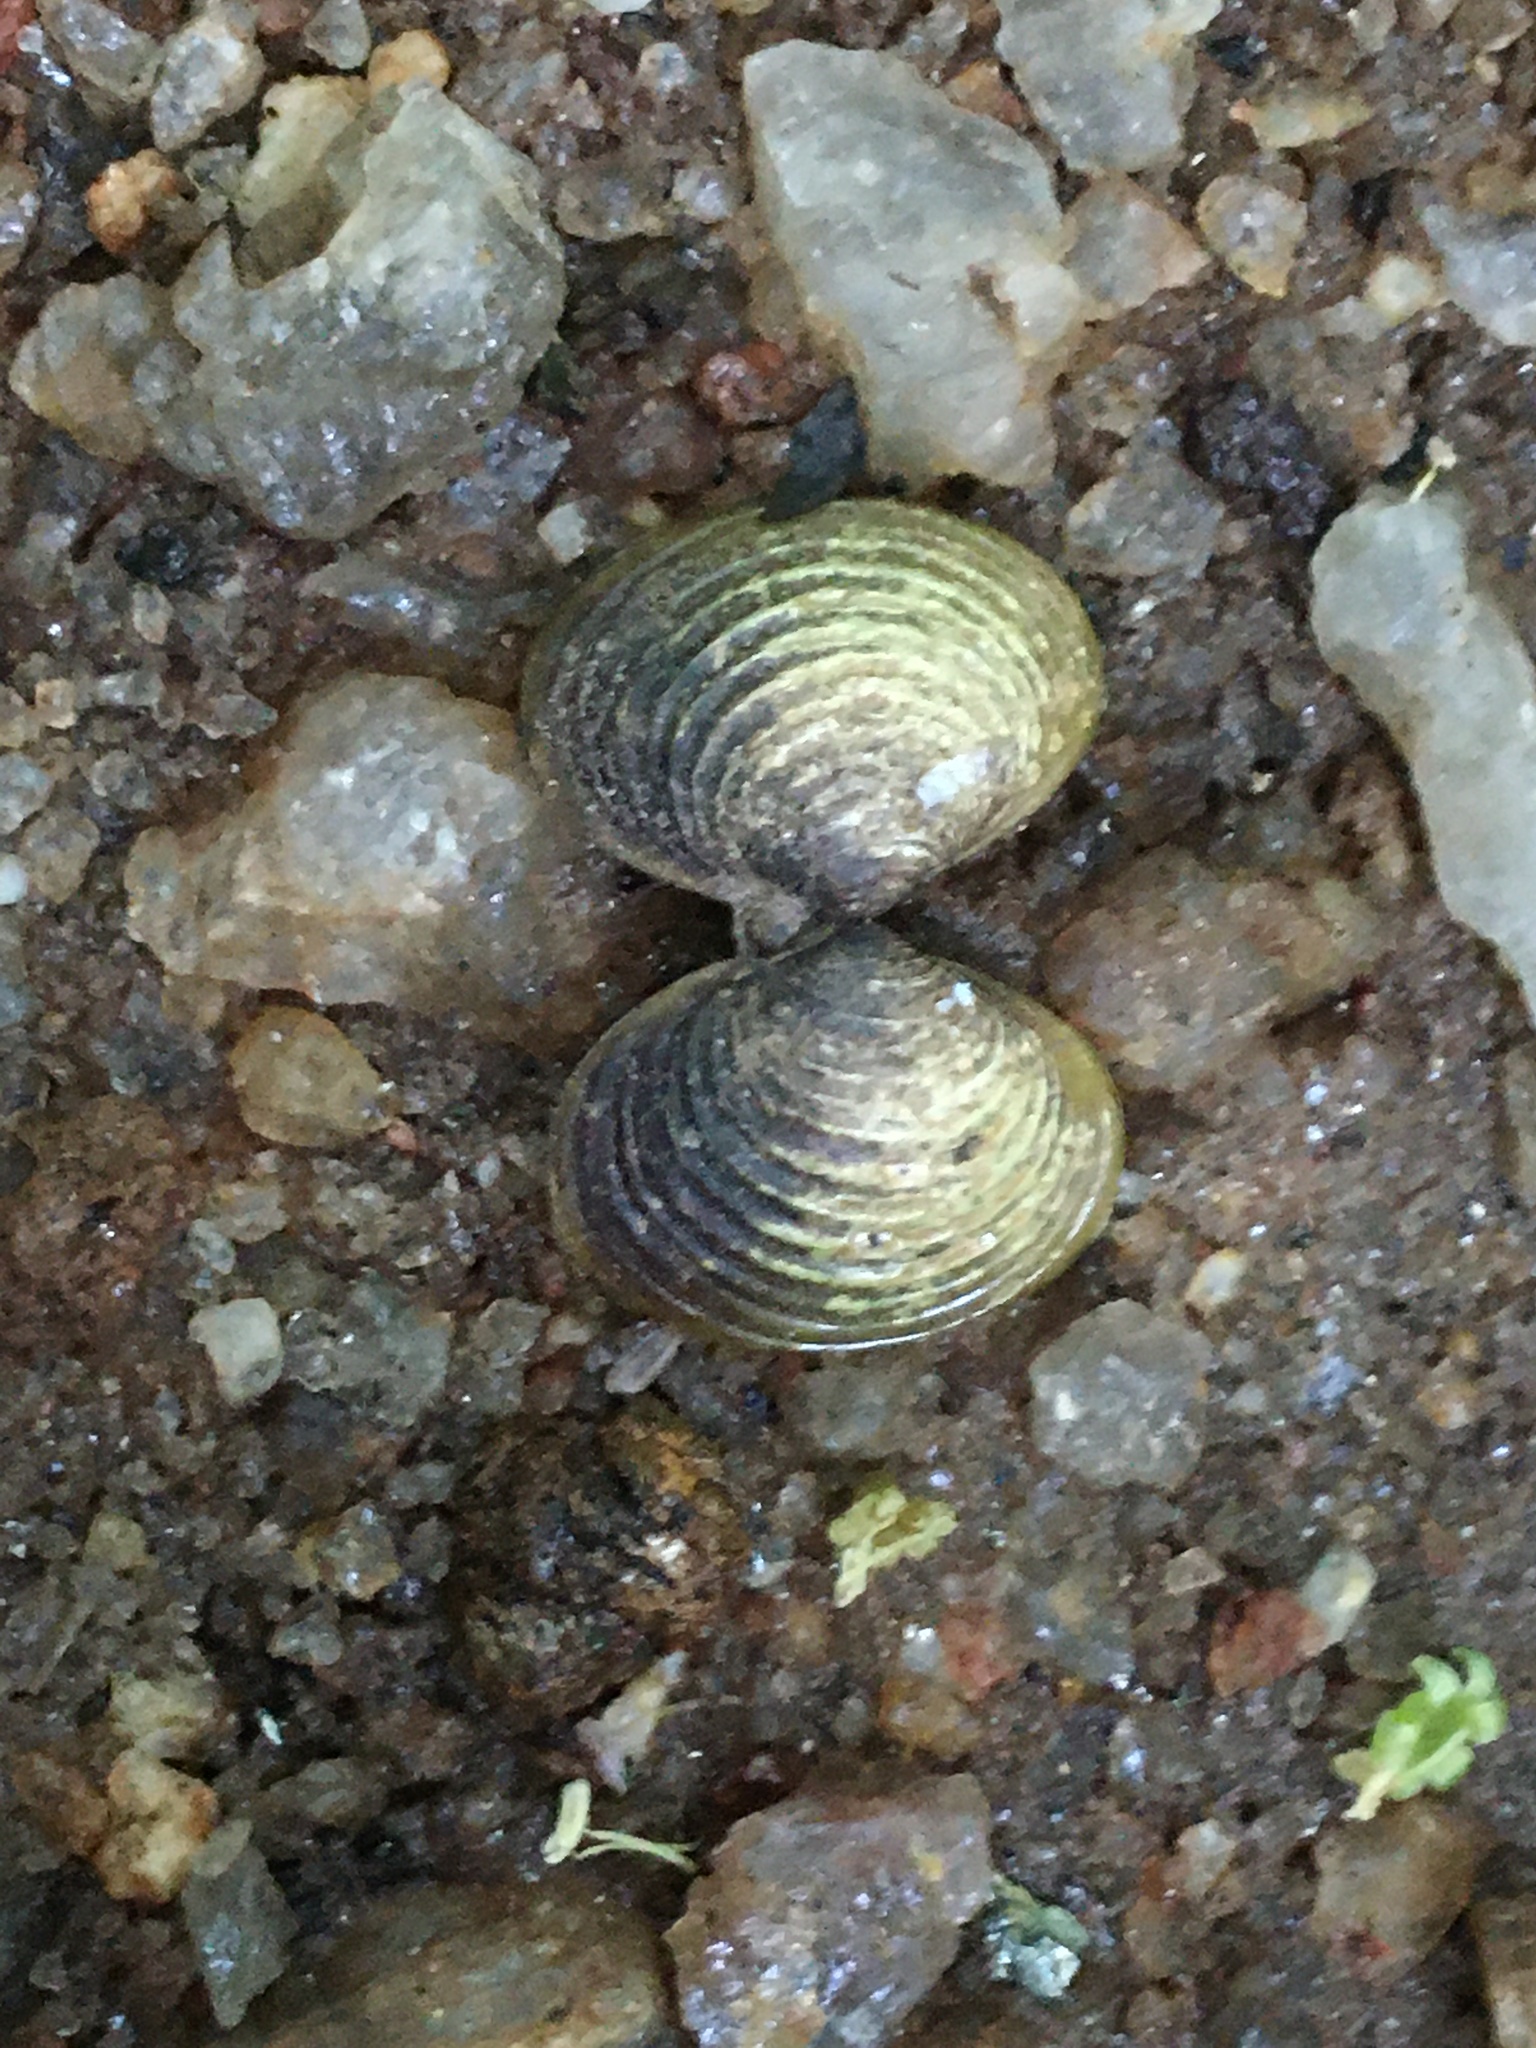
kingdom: Animalia
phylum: Mollusca
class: Bivalvia
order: Venerida
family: Cyrenidae
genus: Corbicula
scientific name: Corbicula fluminea
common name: Asian clam
